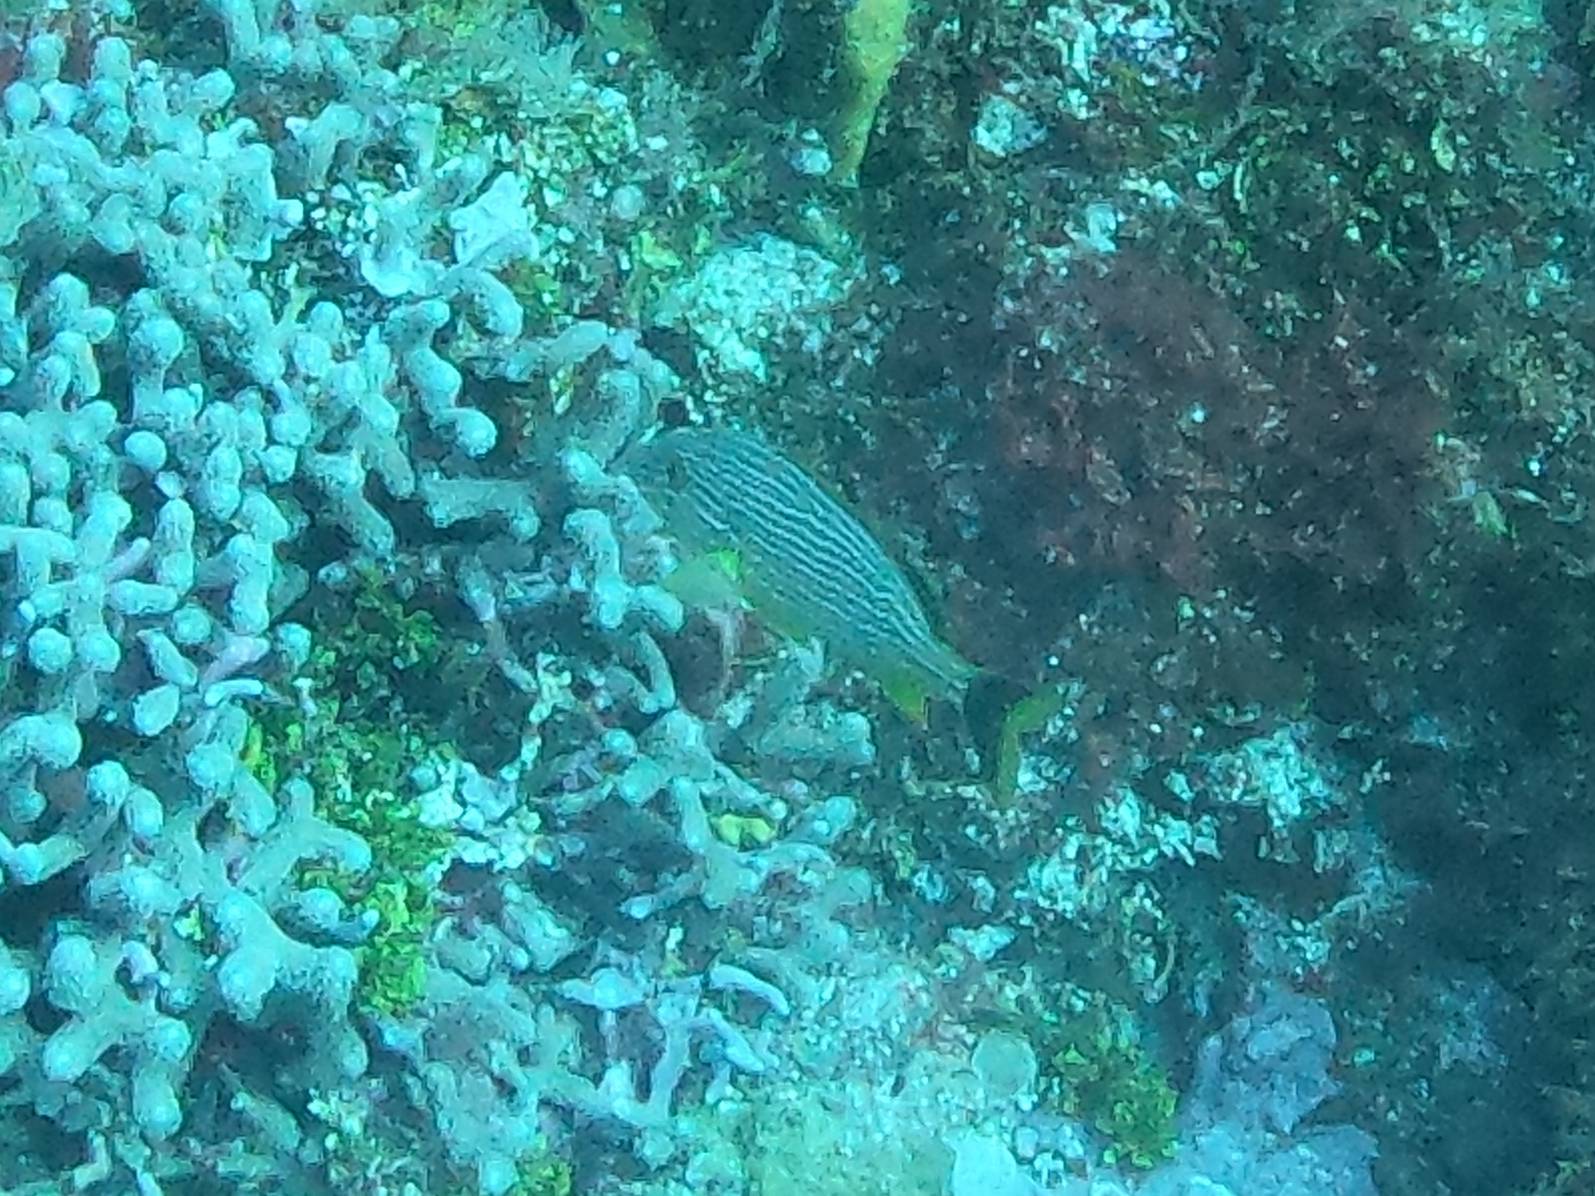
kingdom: Animalia
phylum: Chordata
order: Perciformes
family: Haemulidae
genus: Haemulon
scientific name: Haemulon sciurus
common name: Bluestriped grunt
